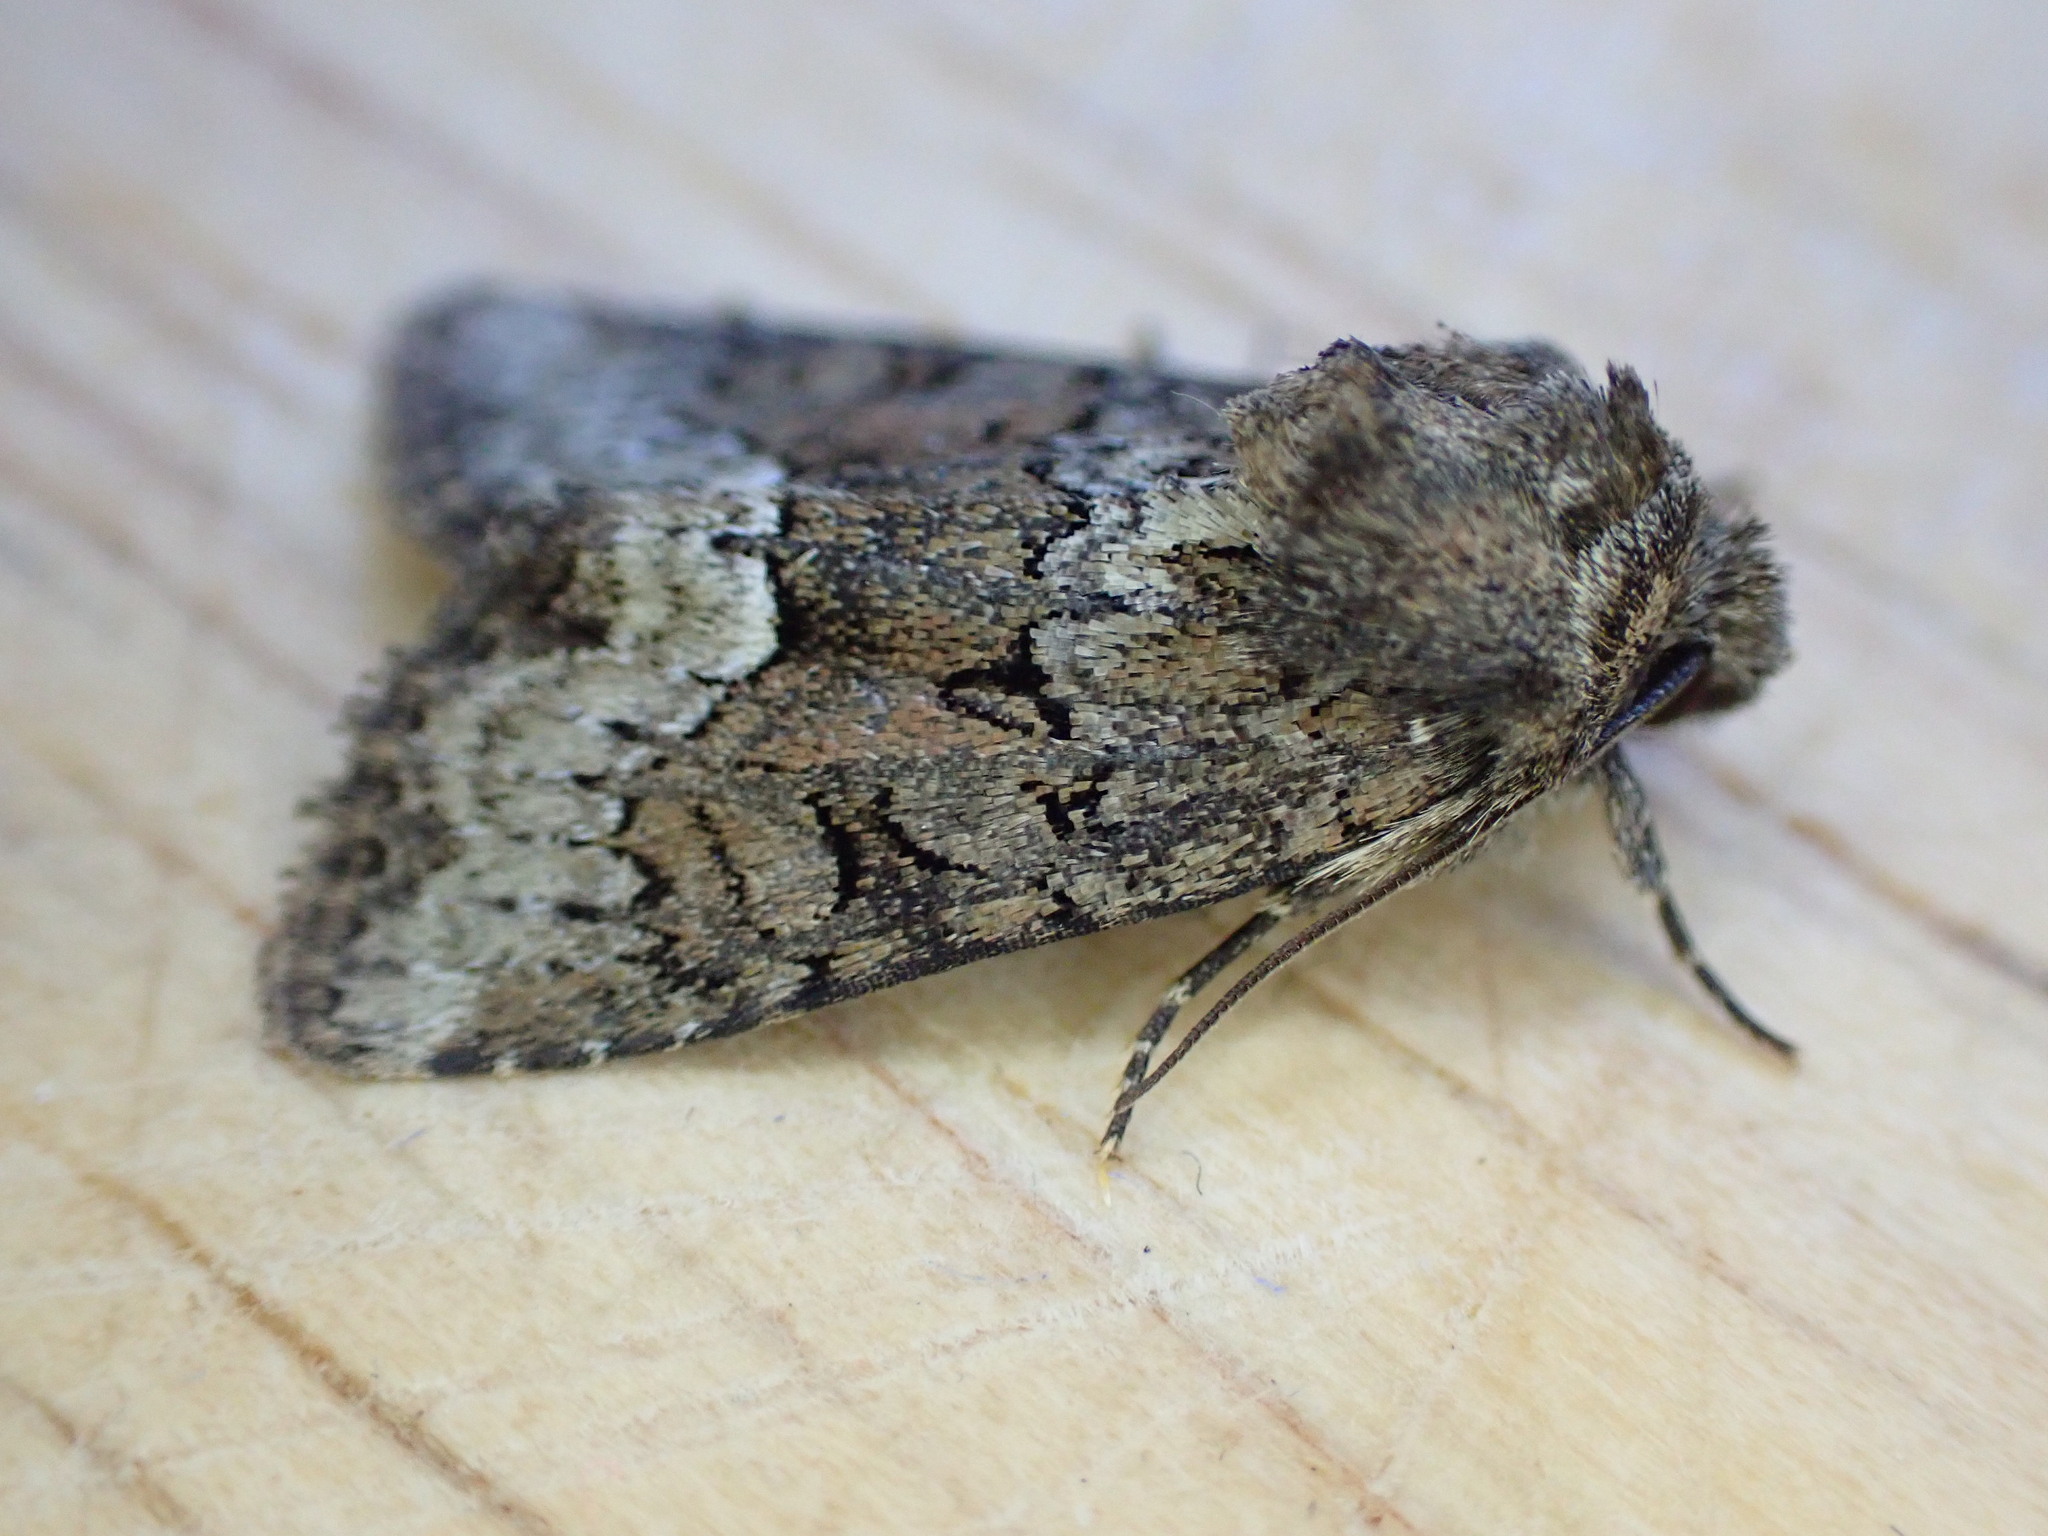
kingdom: Animalia
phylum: Arthropoda
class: Insecta
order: Lepidoptera
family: Noctuidae
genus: Oligia
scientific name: Oligia strigilis
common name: Marbled minor
